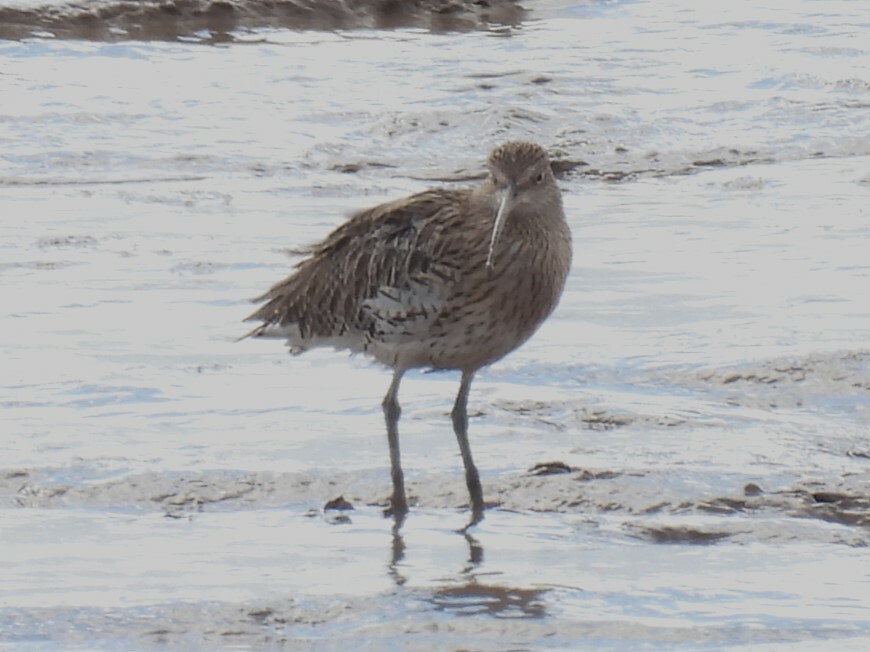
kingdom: Animalia
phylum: Chordata
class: Aves
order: Charadriiformes
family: Scolopacidae
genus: Numenius
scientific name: Numenius arquata
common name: Eurasian curlew
